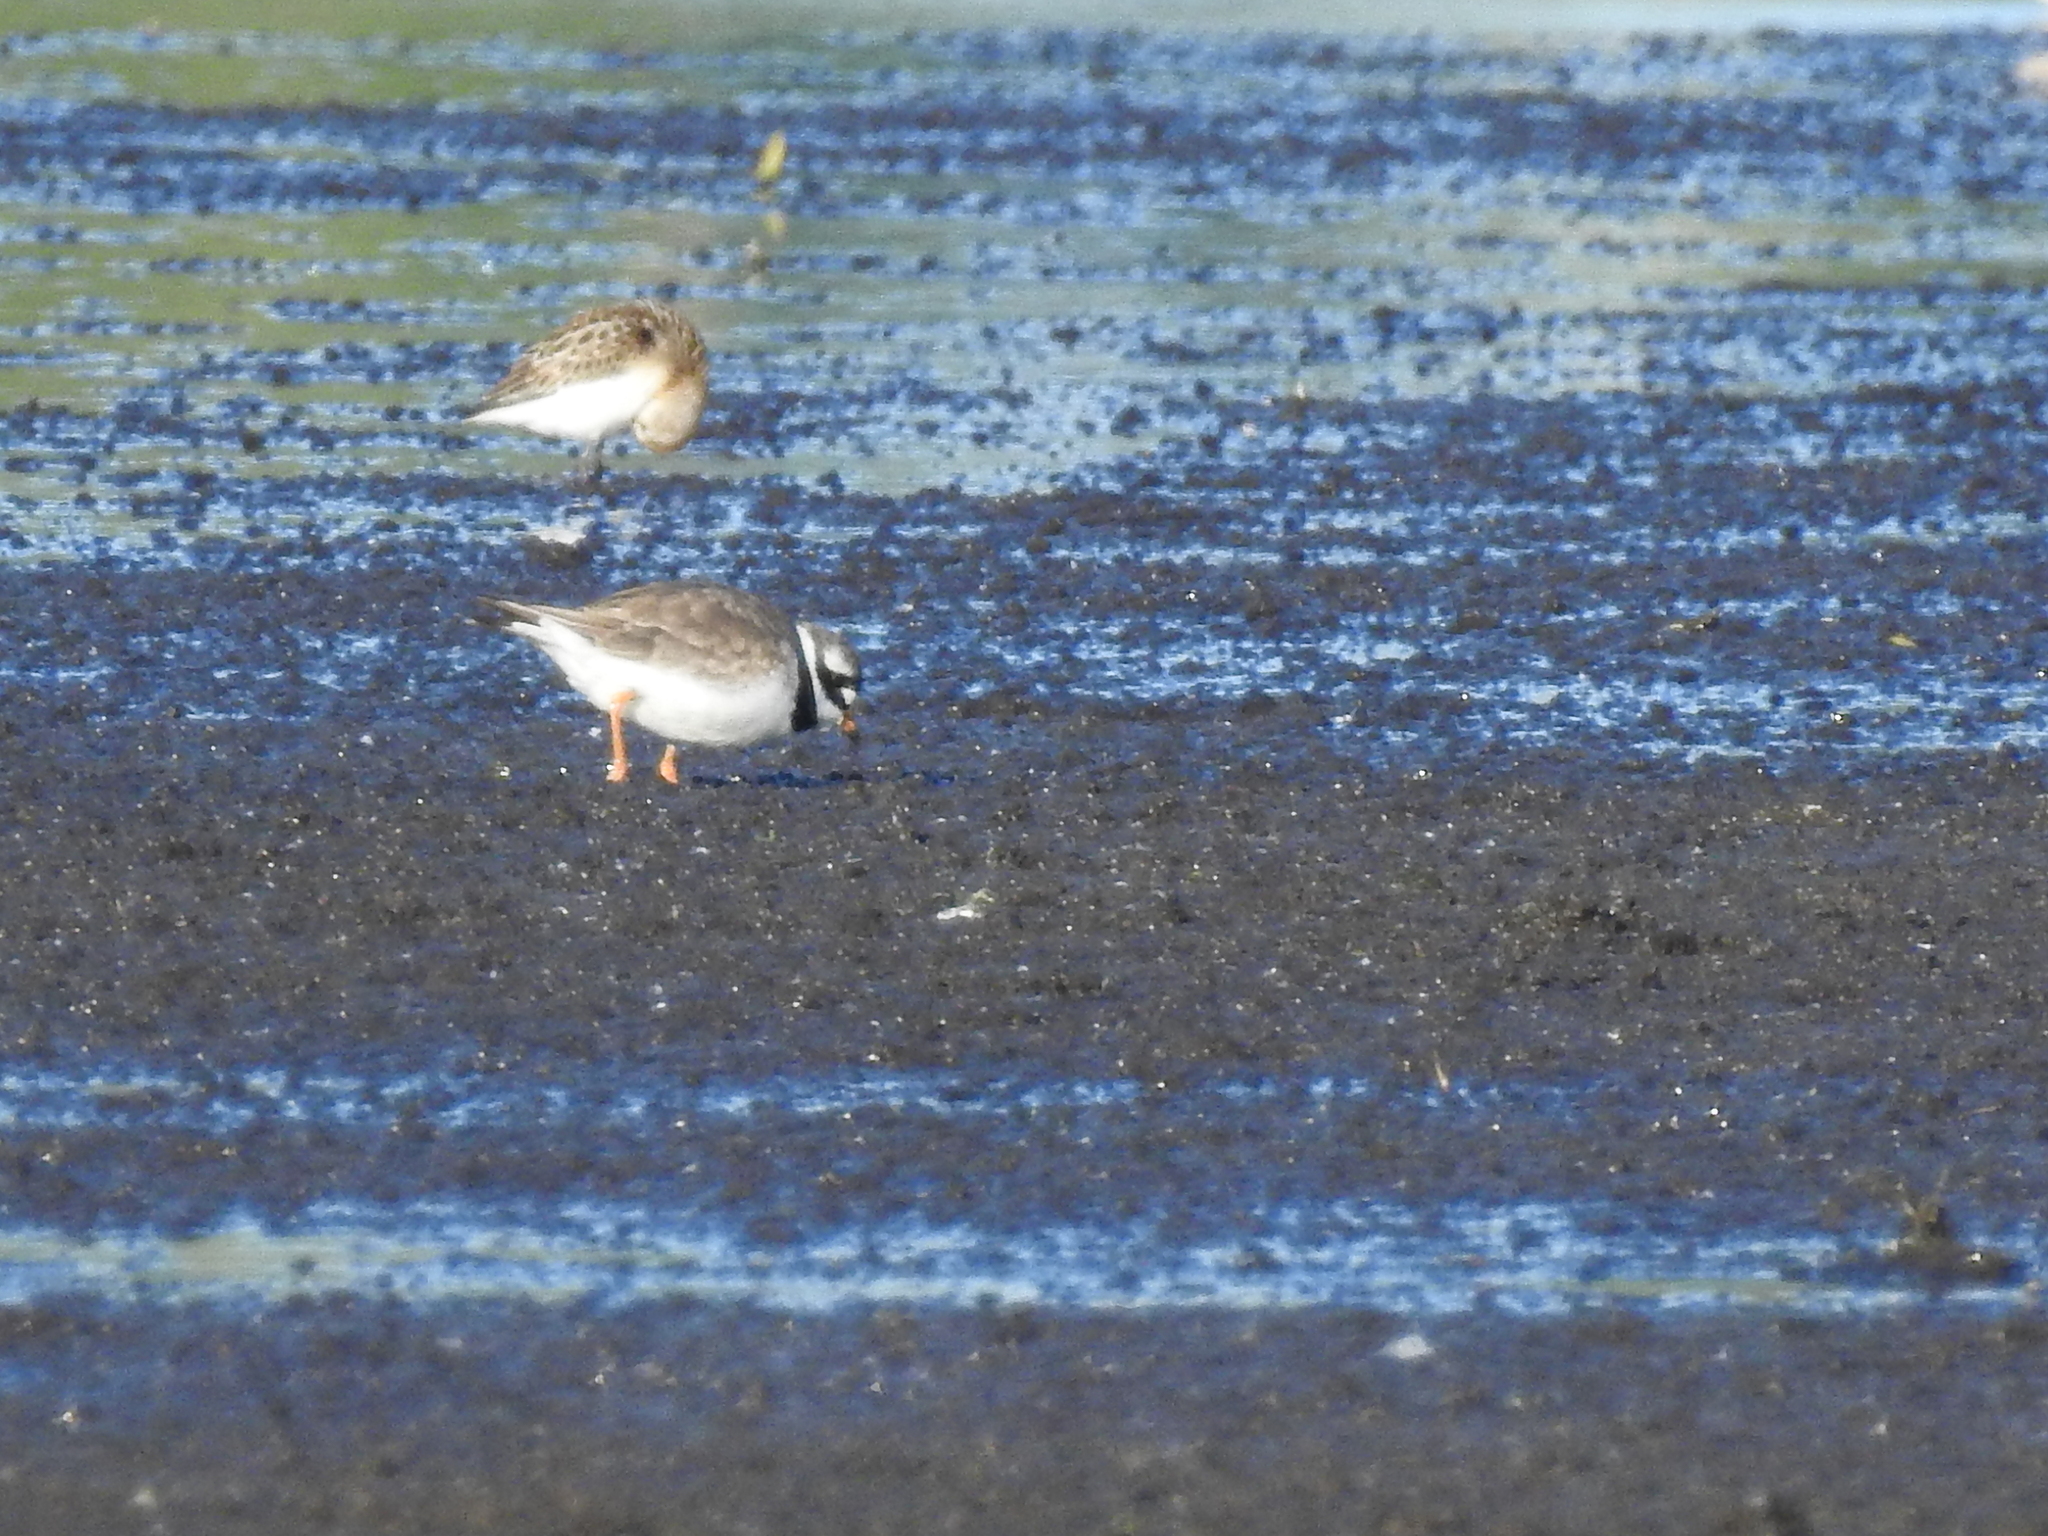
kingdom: Animalia
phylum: Chordata
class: Aves
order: Charadriiformes
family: Charadriidae
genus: Charadrius
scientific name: Charadrius hiaticula
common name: Common ringed plover
